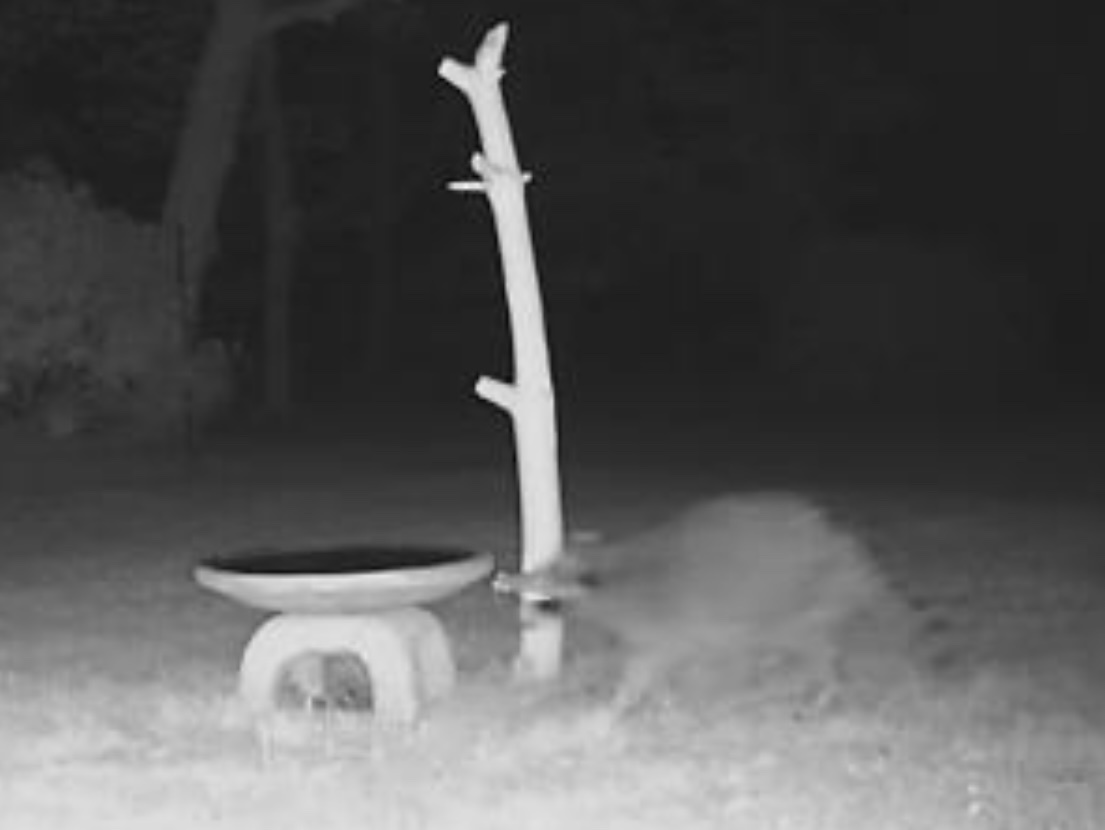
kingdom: Animalia
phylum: Chordata
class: Mammalia
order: Carnivora
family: Procyonidae
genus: Procyon
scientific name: Procyon lotor
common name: Raccoon
